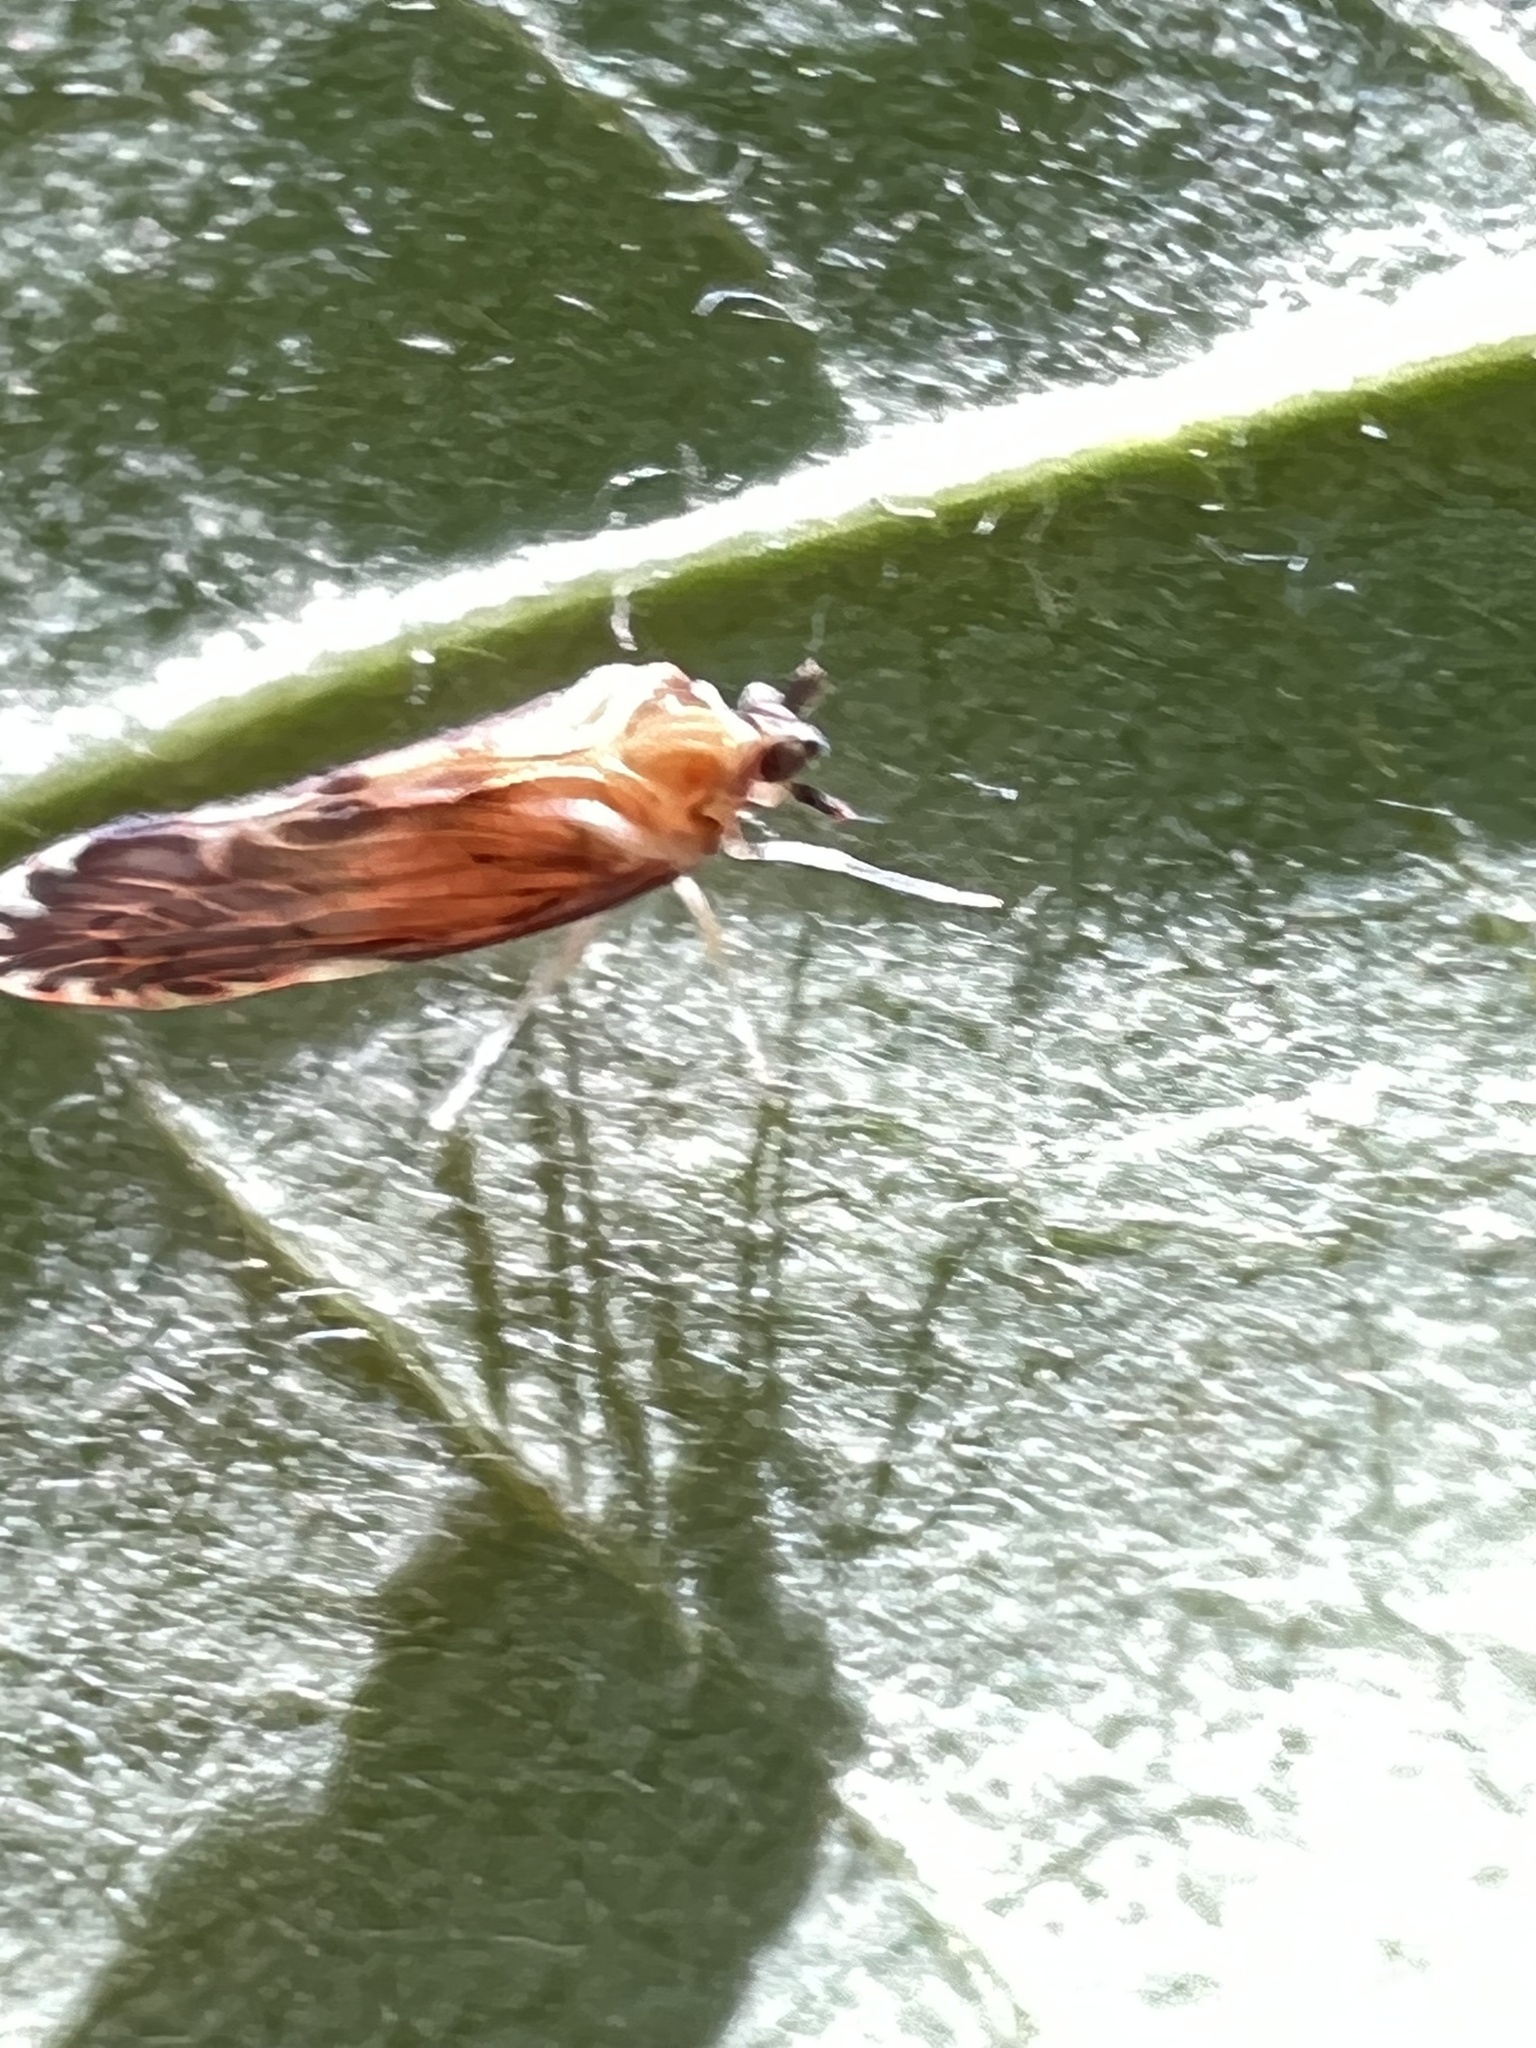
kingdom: Animalia
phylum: Arthropoda
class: Insecta
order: Hemiptera
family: Derbidae
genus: Patara
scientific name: Patara vanduzei
